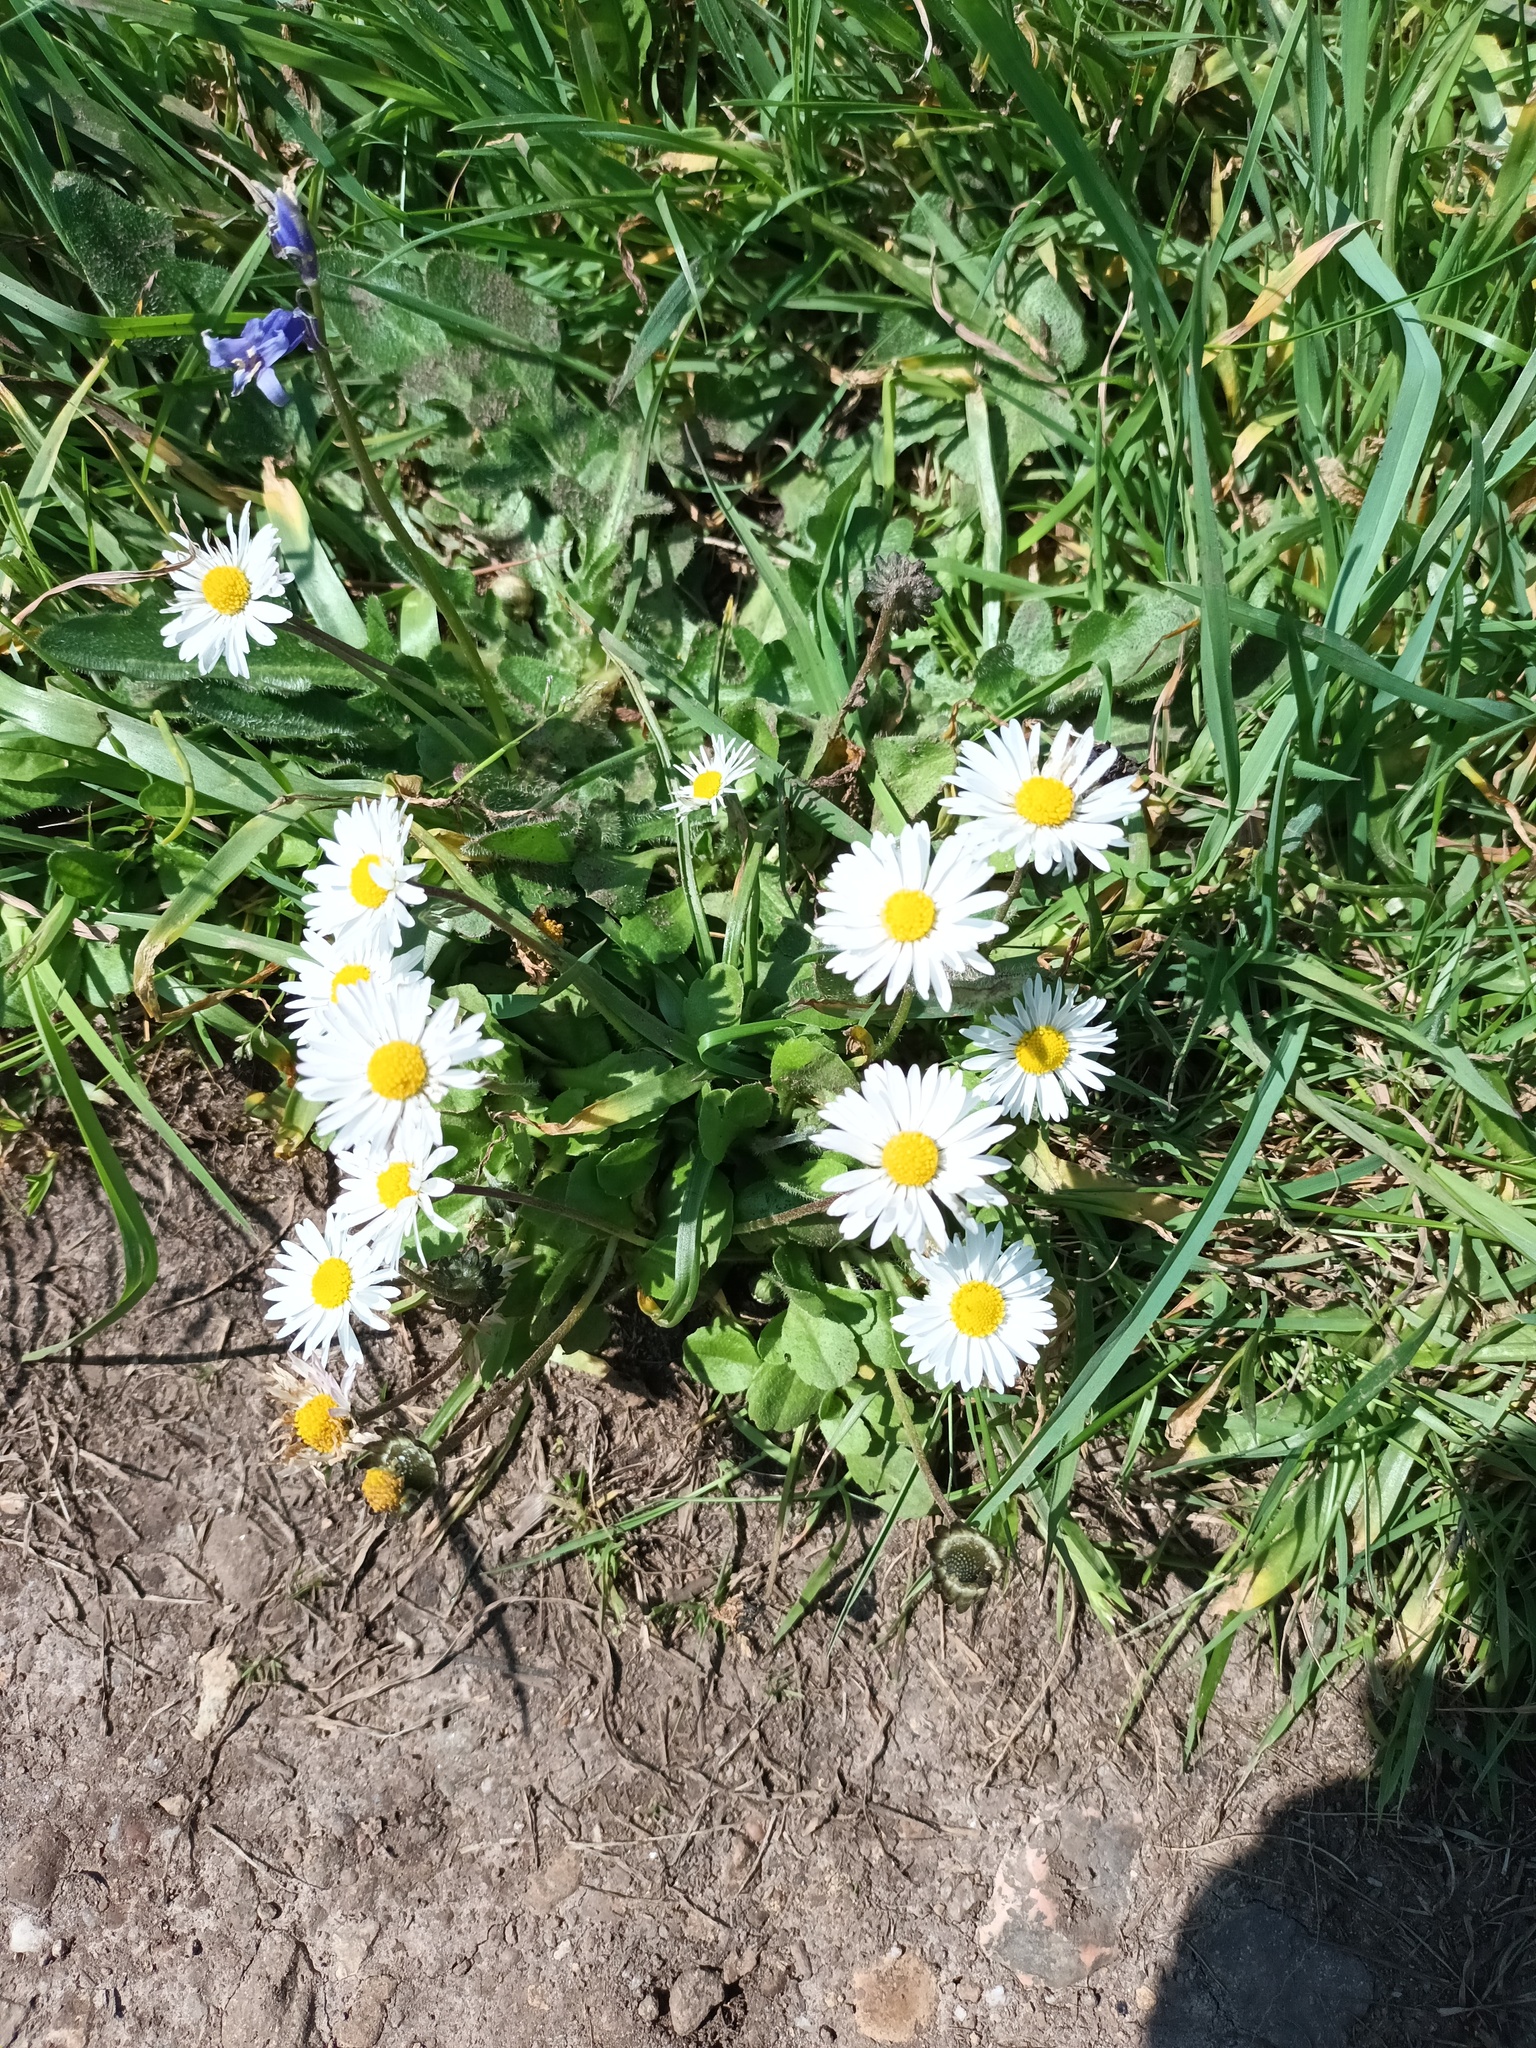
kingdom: Plantae
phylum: Tracheophyta
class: Magnoliopsida
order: Asterales
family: Asteraceae
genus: Bellis
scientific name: Bellis perennis
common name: Lawndaisy
